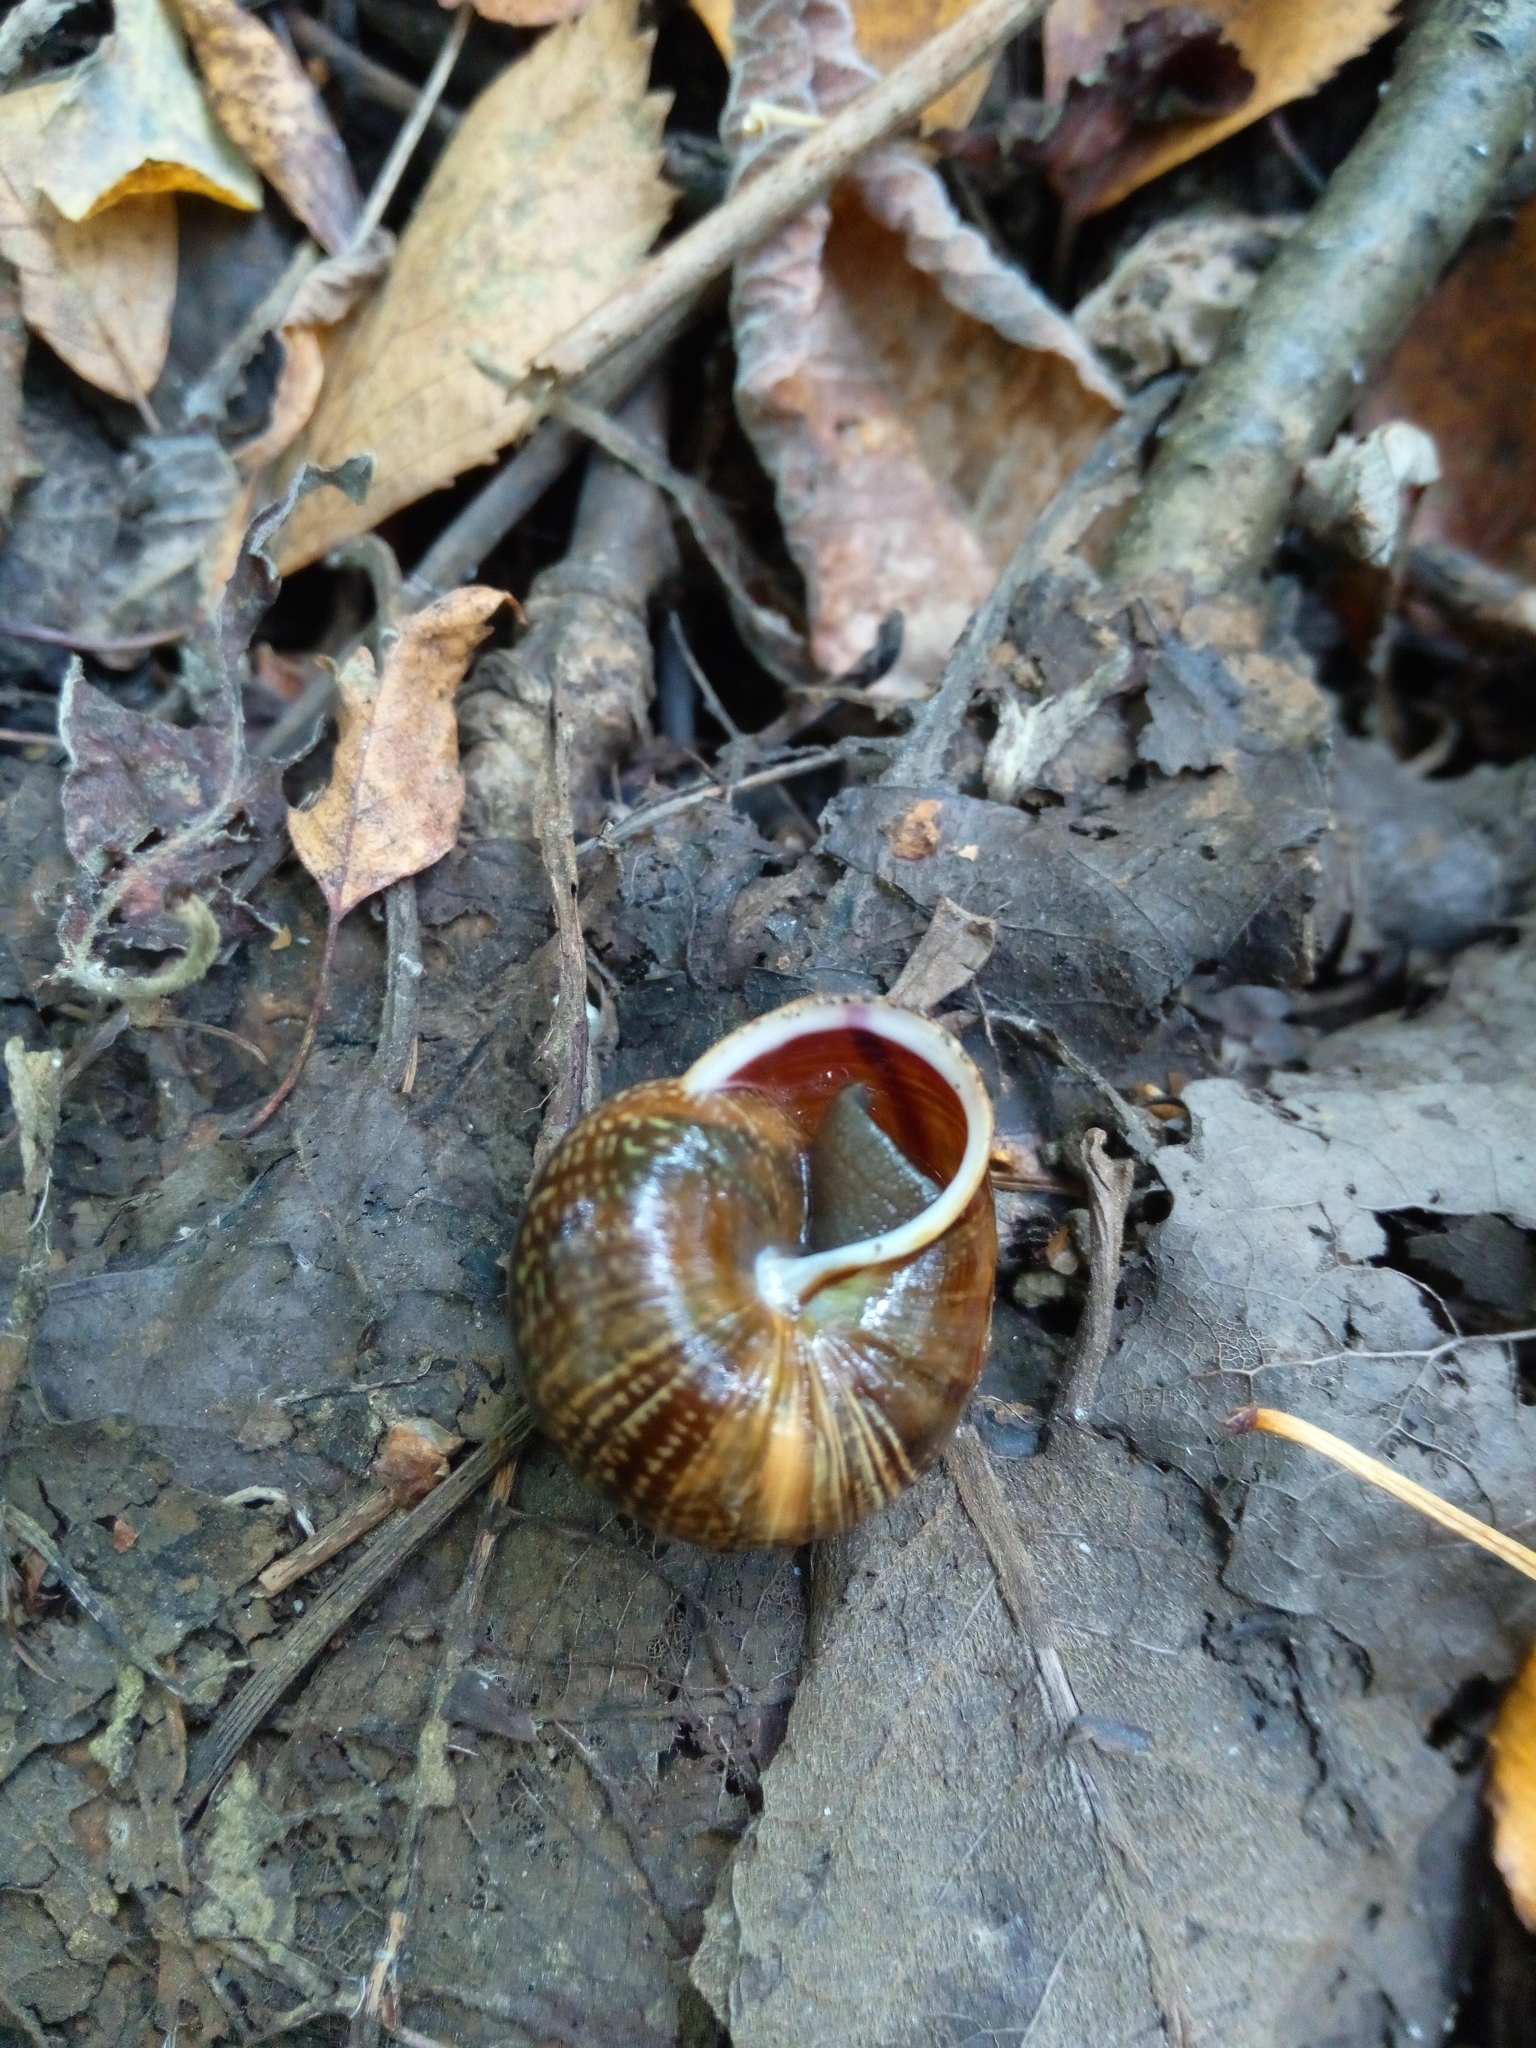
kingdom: Animalia
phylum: Mollusca
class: Gastropoda
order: Stylommatophora
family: Helicidae
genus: Arianta
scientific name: Arianta arbustorum
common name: Copse snail
